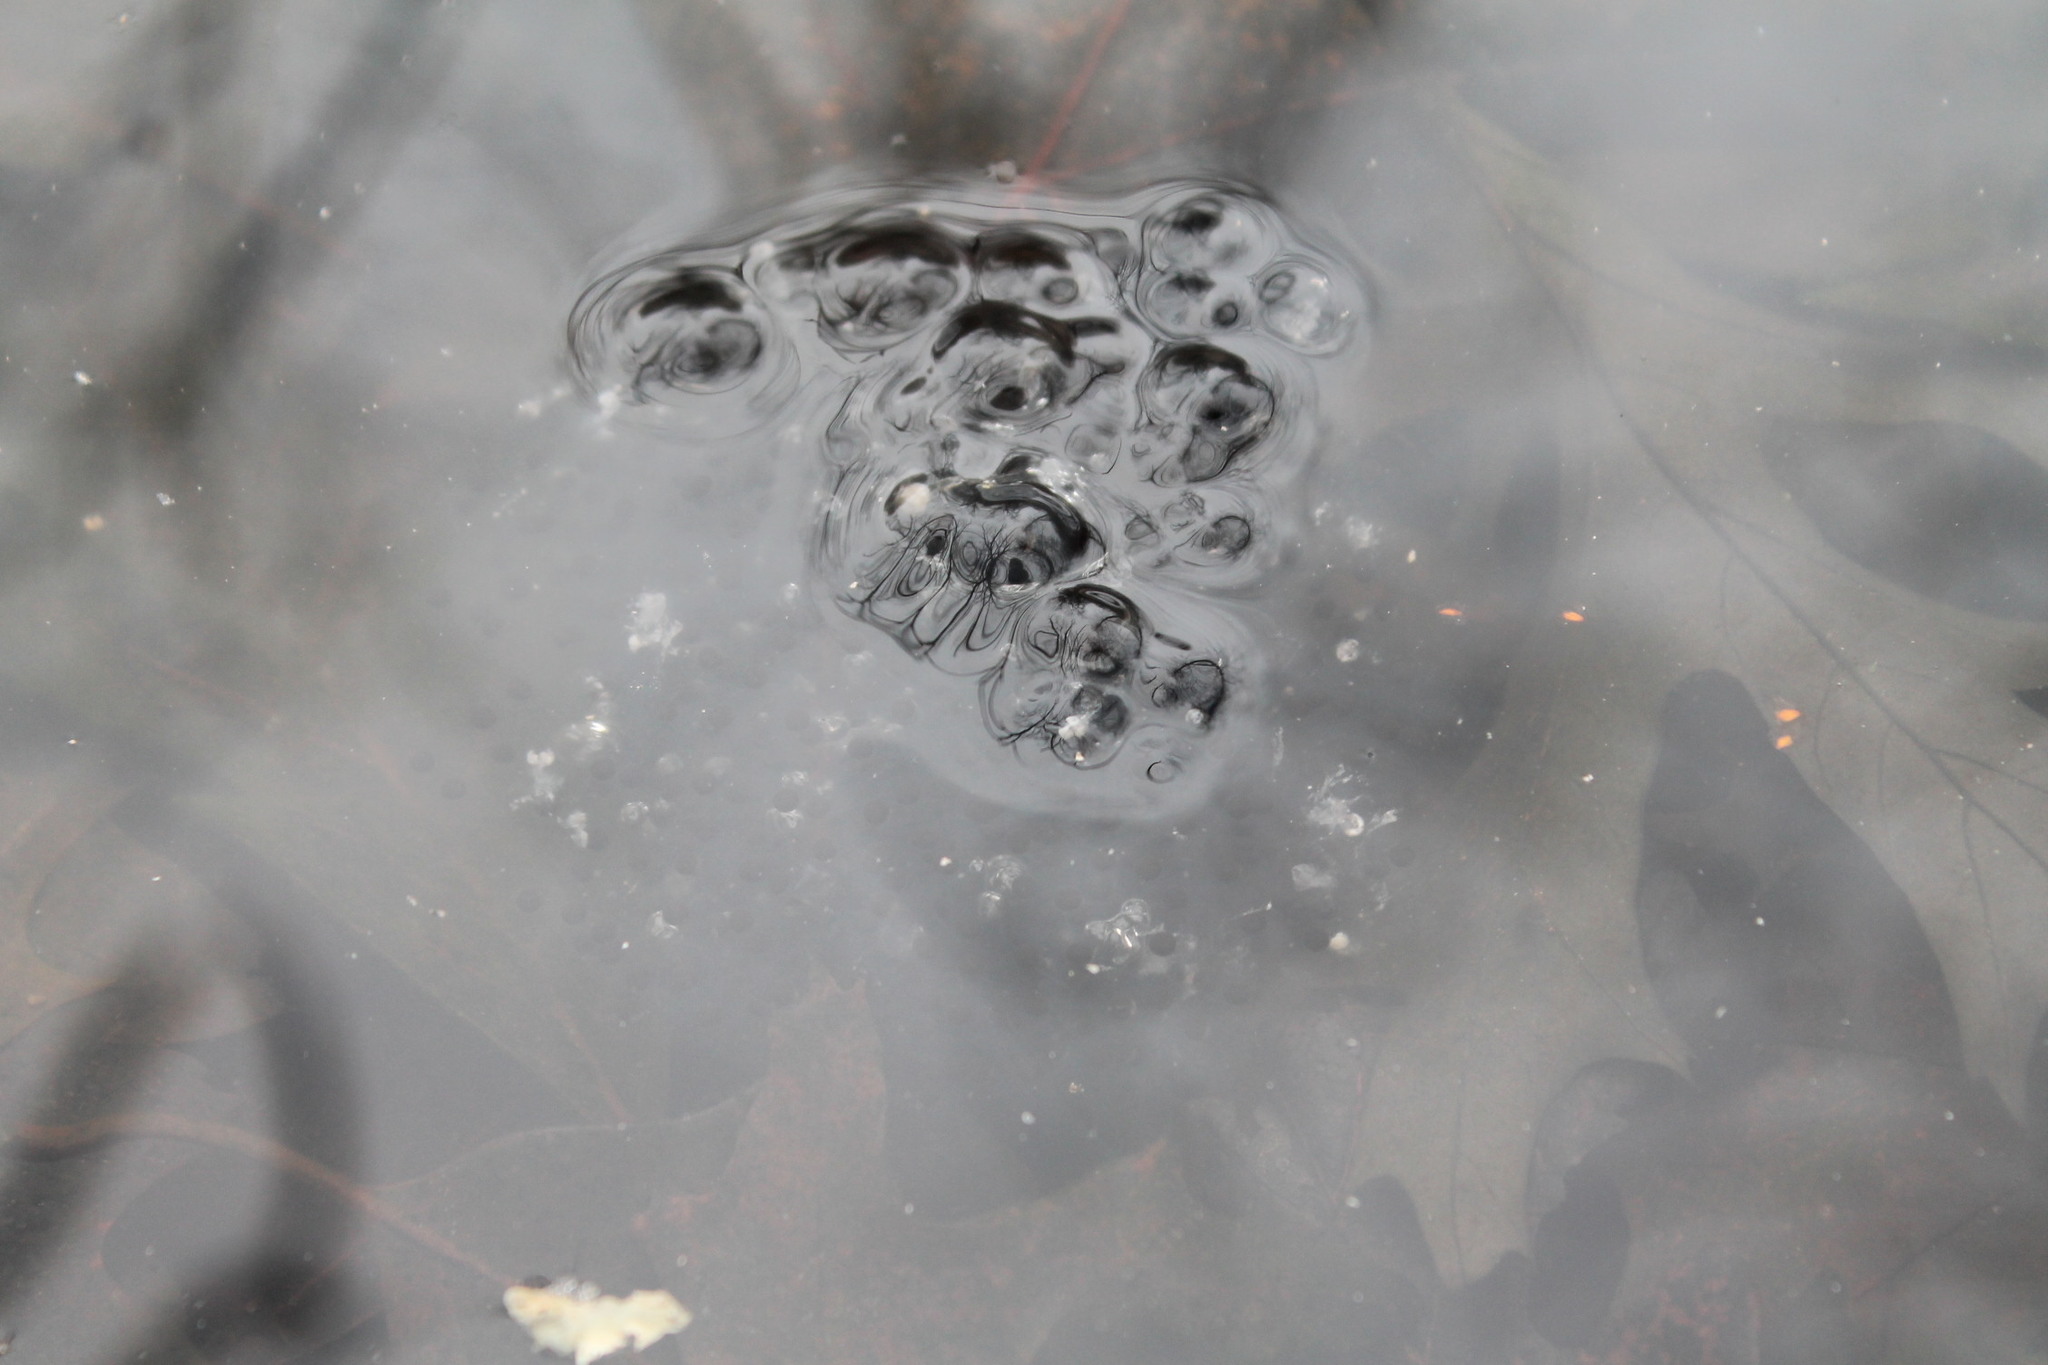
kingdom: Animalia
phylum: Chordata
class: Amphibia
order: Anura
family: Ranidae
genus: Lithobates
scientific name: Lithobates sylvaticus
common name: Wood frog
